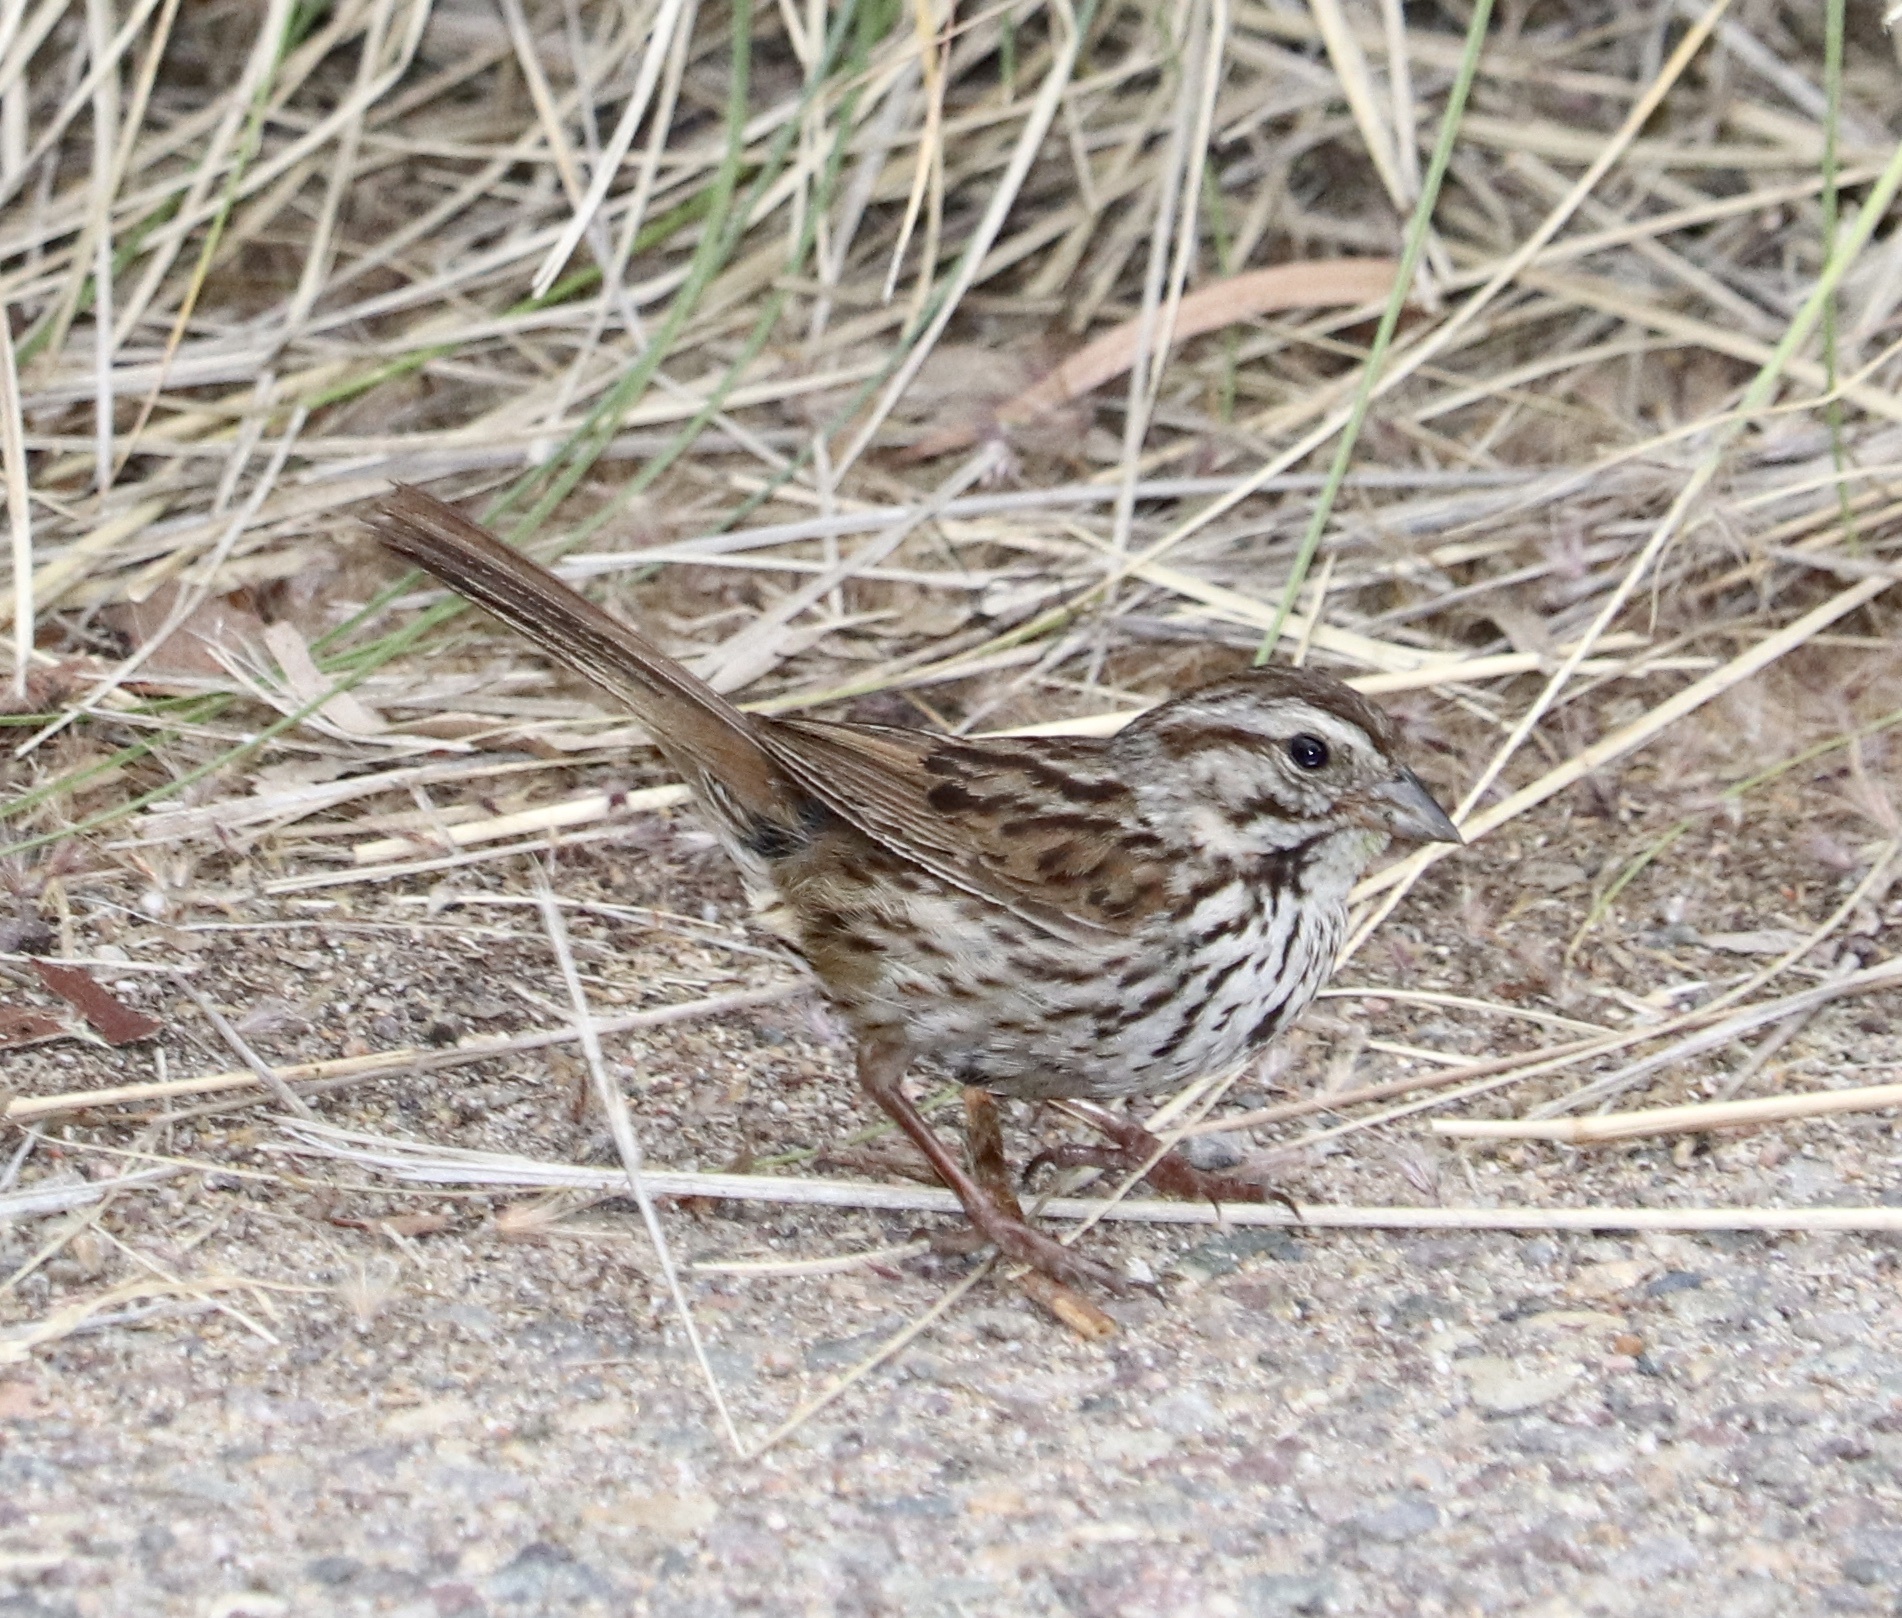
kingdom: Animalia
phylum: Chordata
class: Aves
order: Passeriformes
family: Passerellidae
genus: Melospiza
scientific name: Melospiza melodia
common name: Song sparrow
